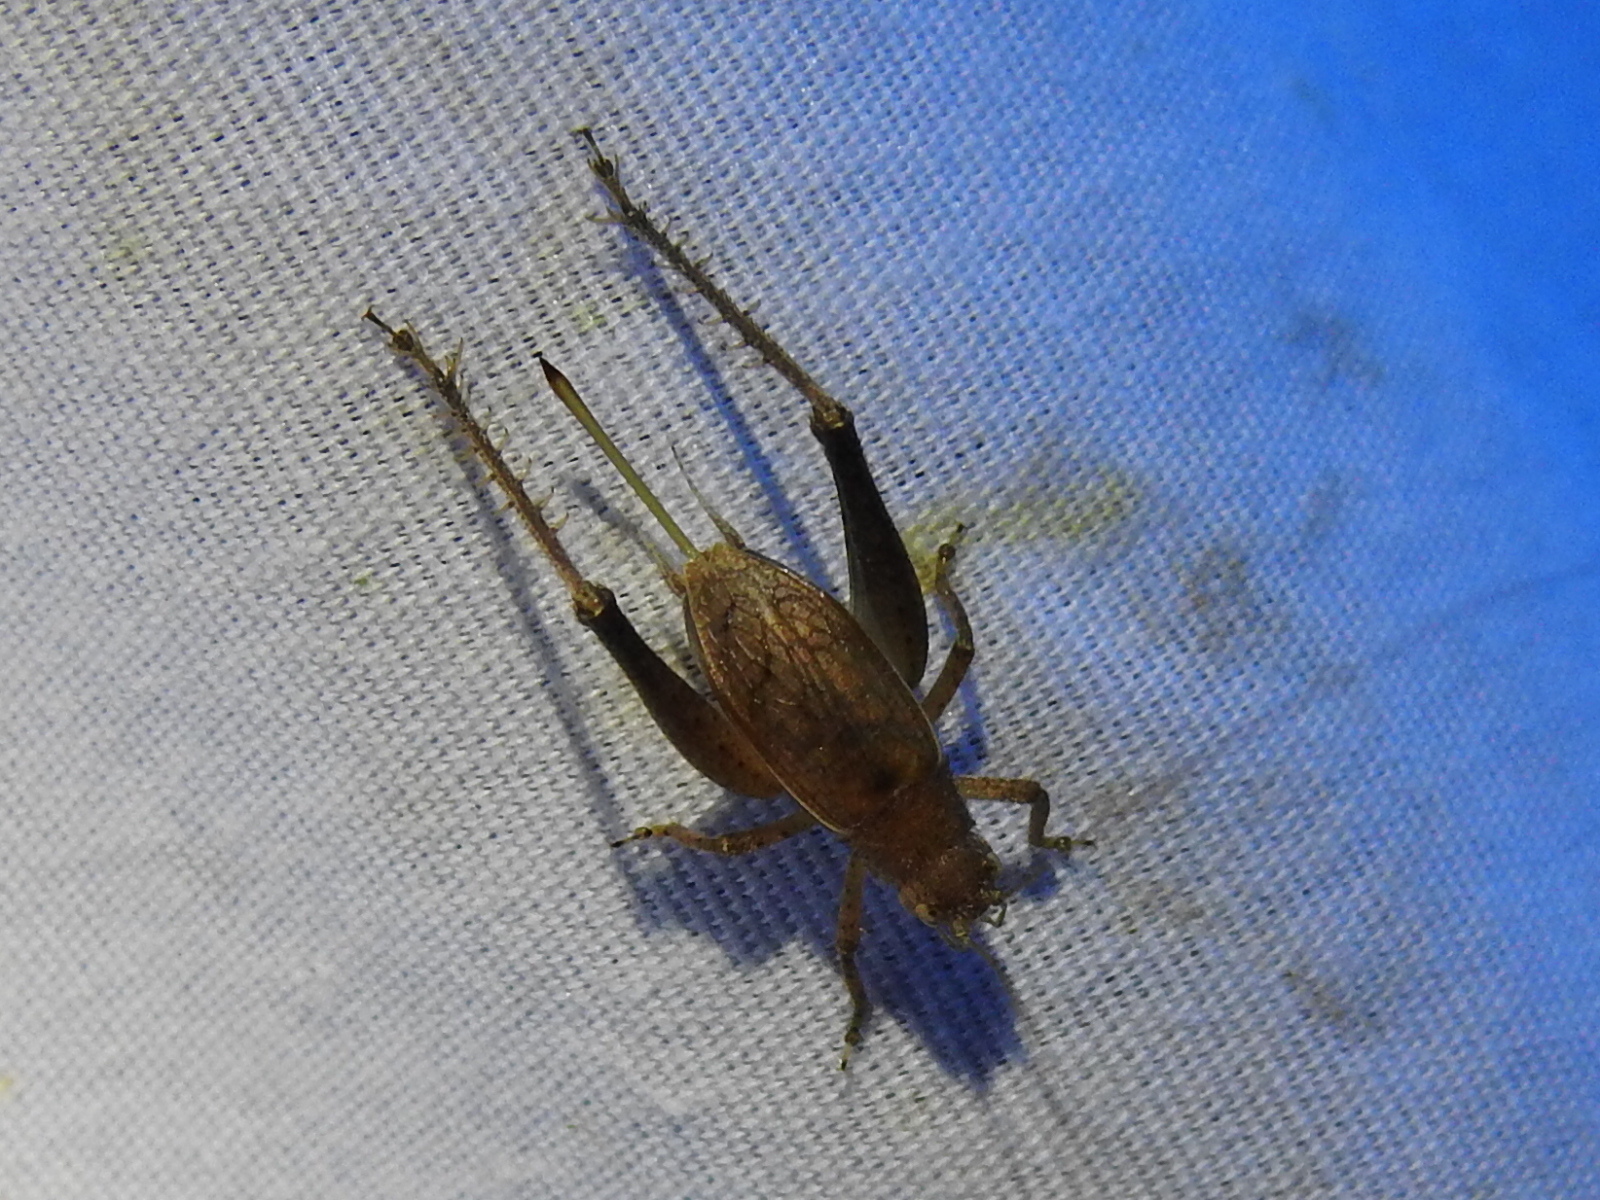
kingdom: Animalia
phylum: Arthropoda
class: Insecta
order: Orthoptera
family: Gryllidae
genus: Hapithus
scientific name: Hapithus agitator
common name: Restless bush cricket
